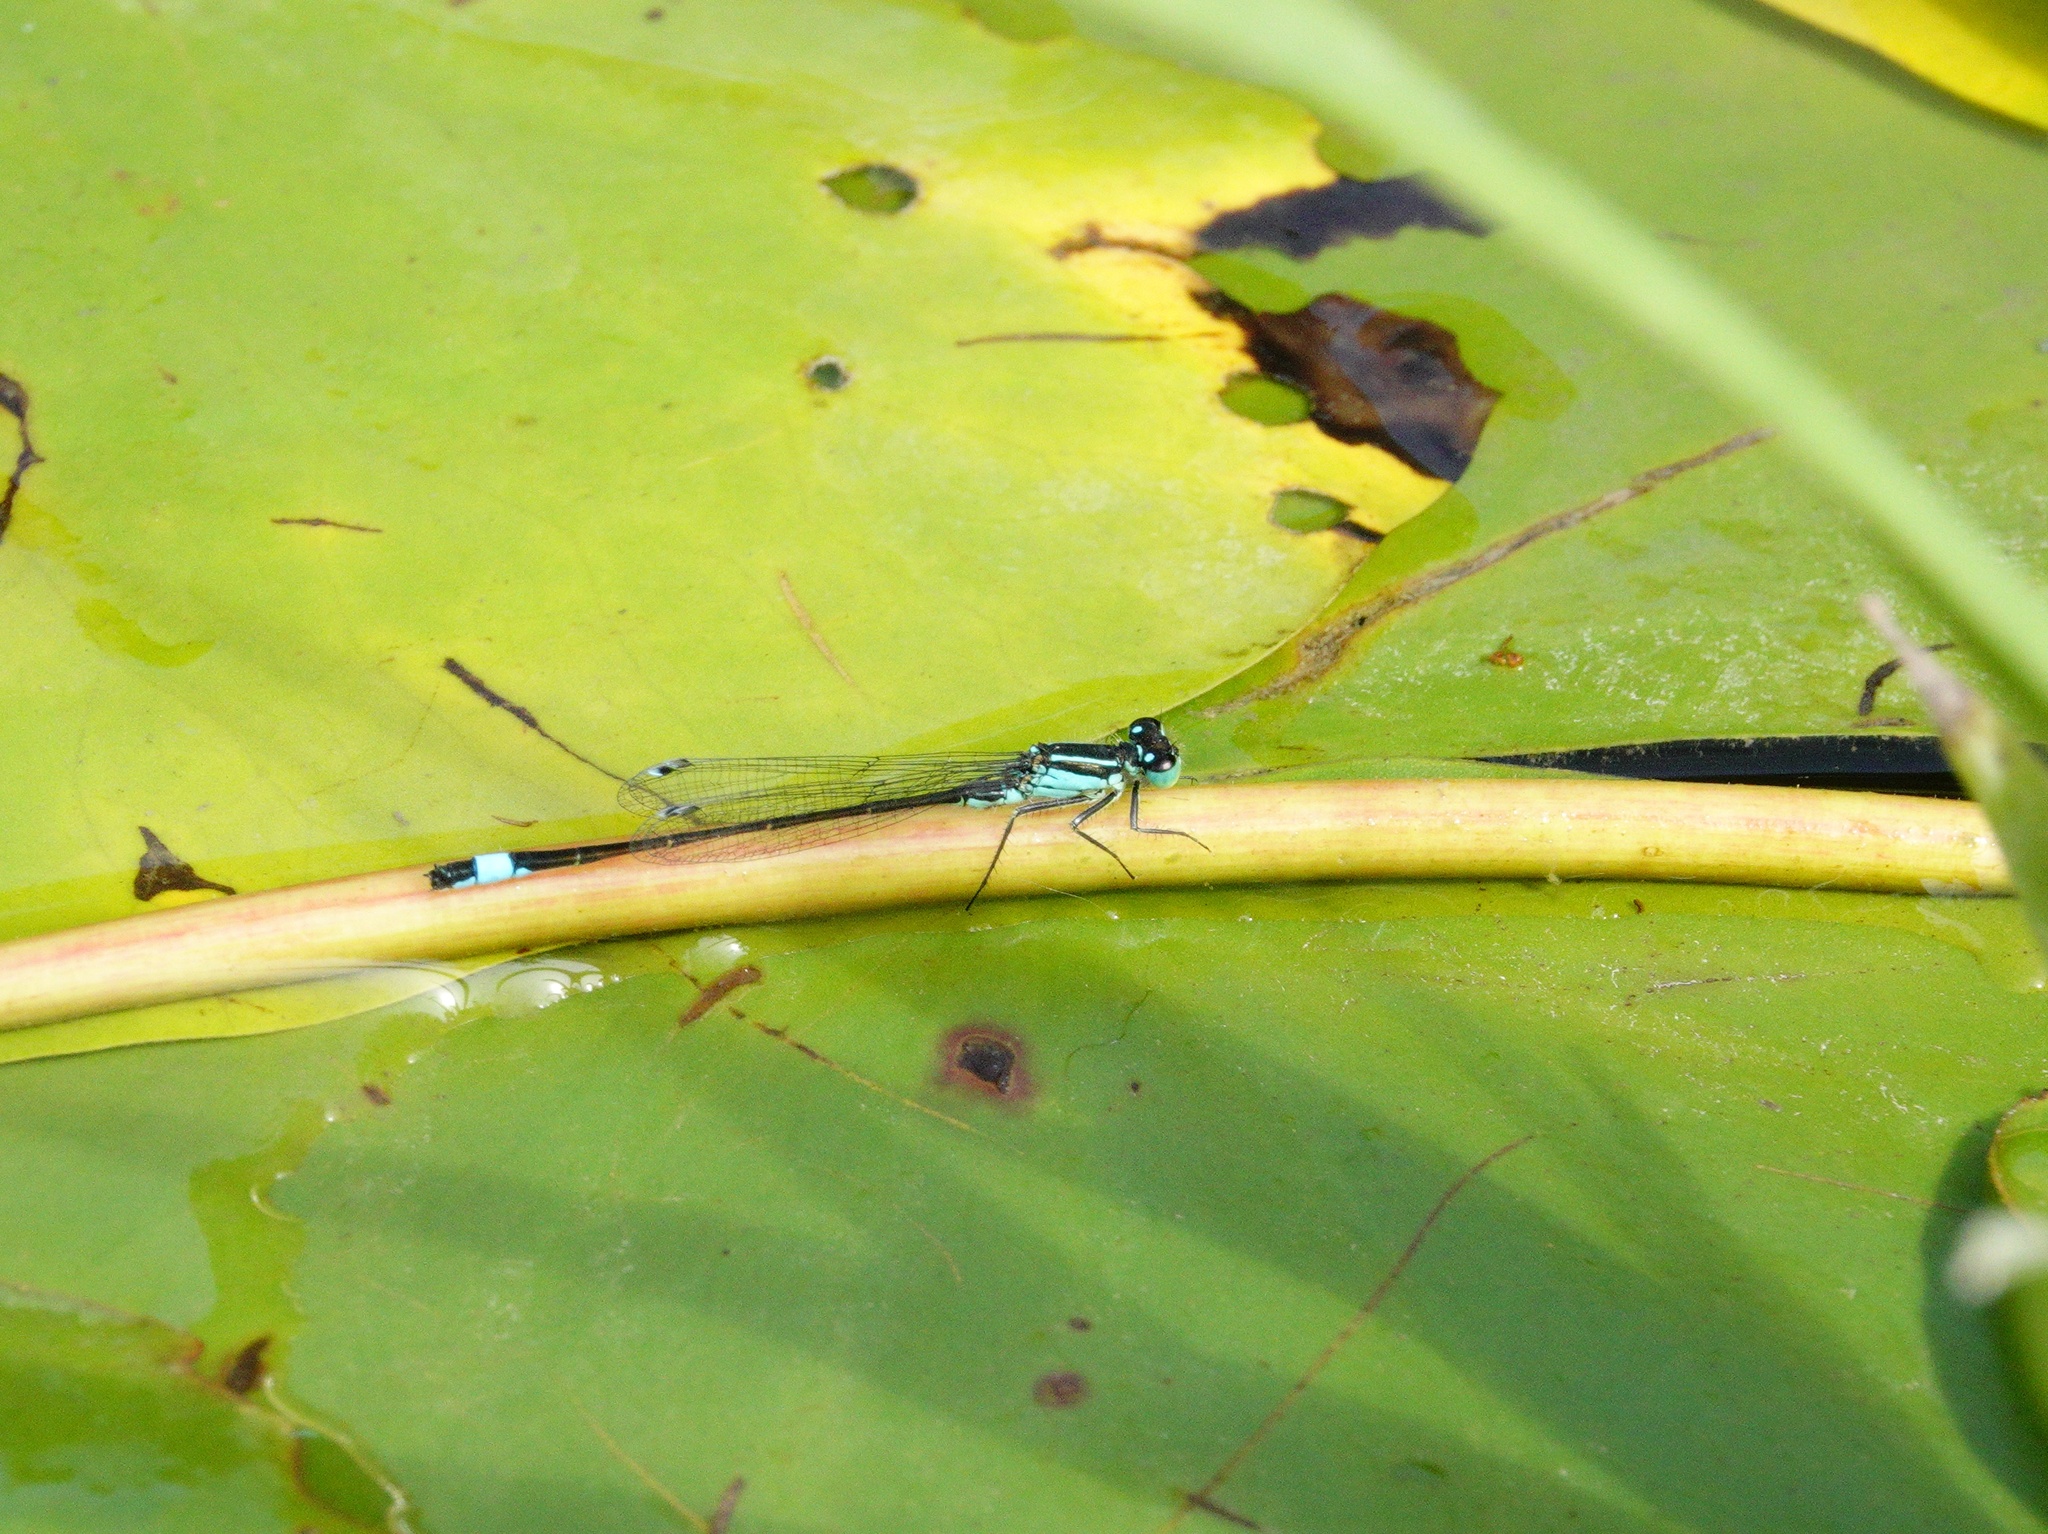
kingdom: Animalia
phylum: Arthropoda
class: Insecta
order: Odonata
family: Coenagrionidae
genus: Ischnura
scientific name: Ischnura elegans
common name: Blue-tailed damselfly
